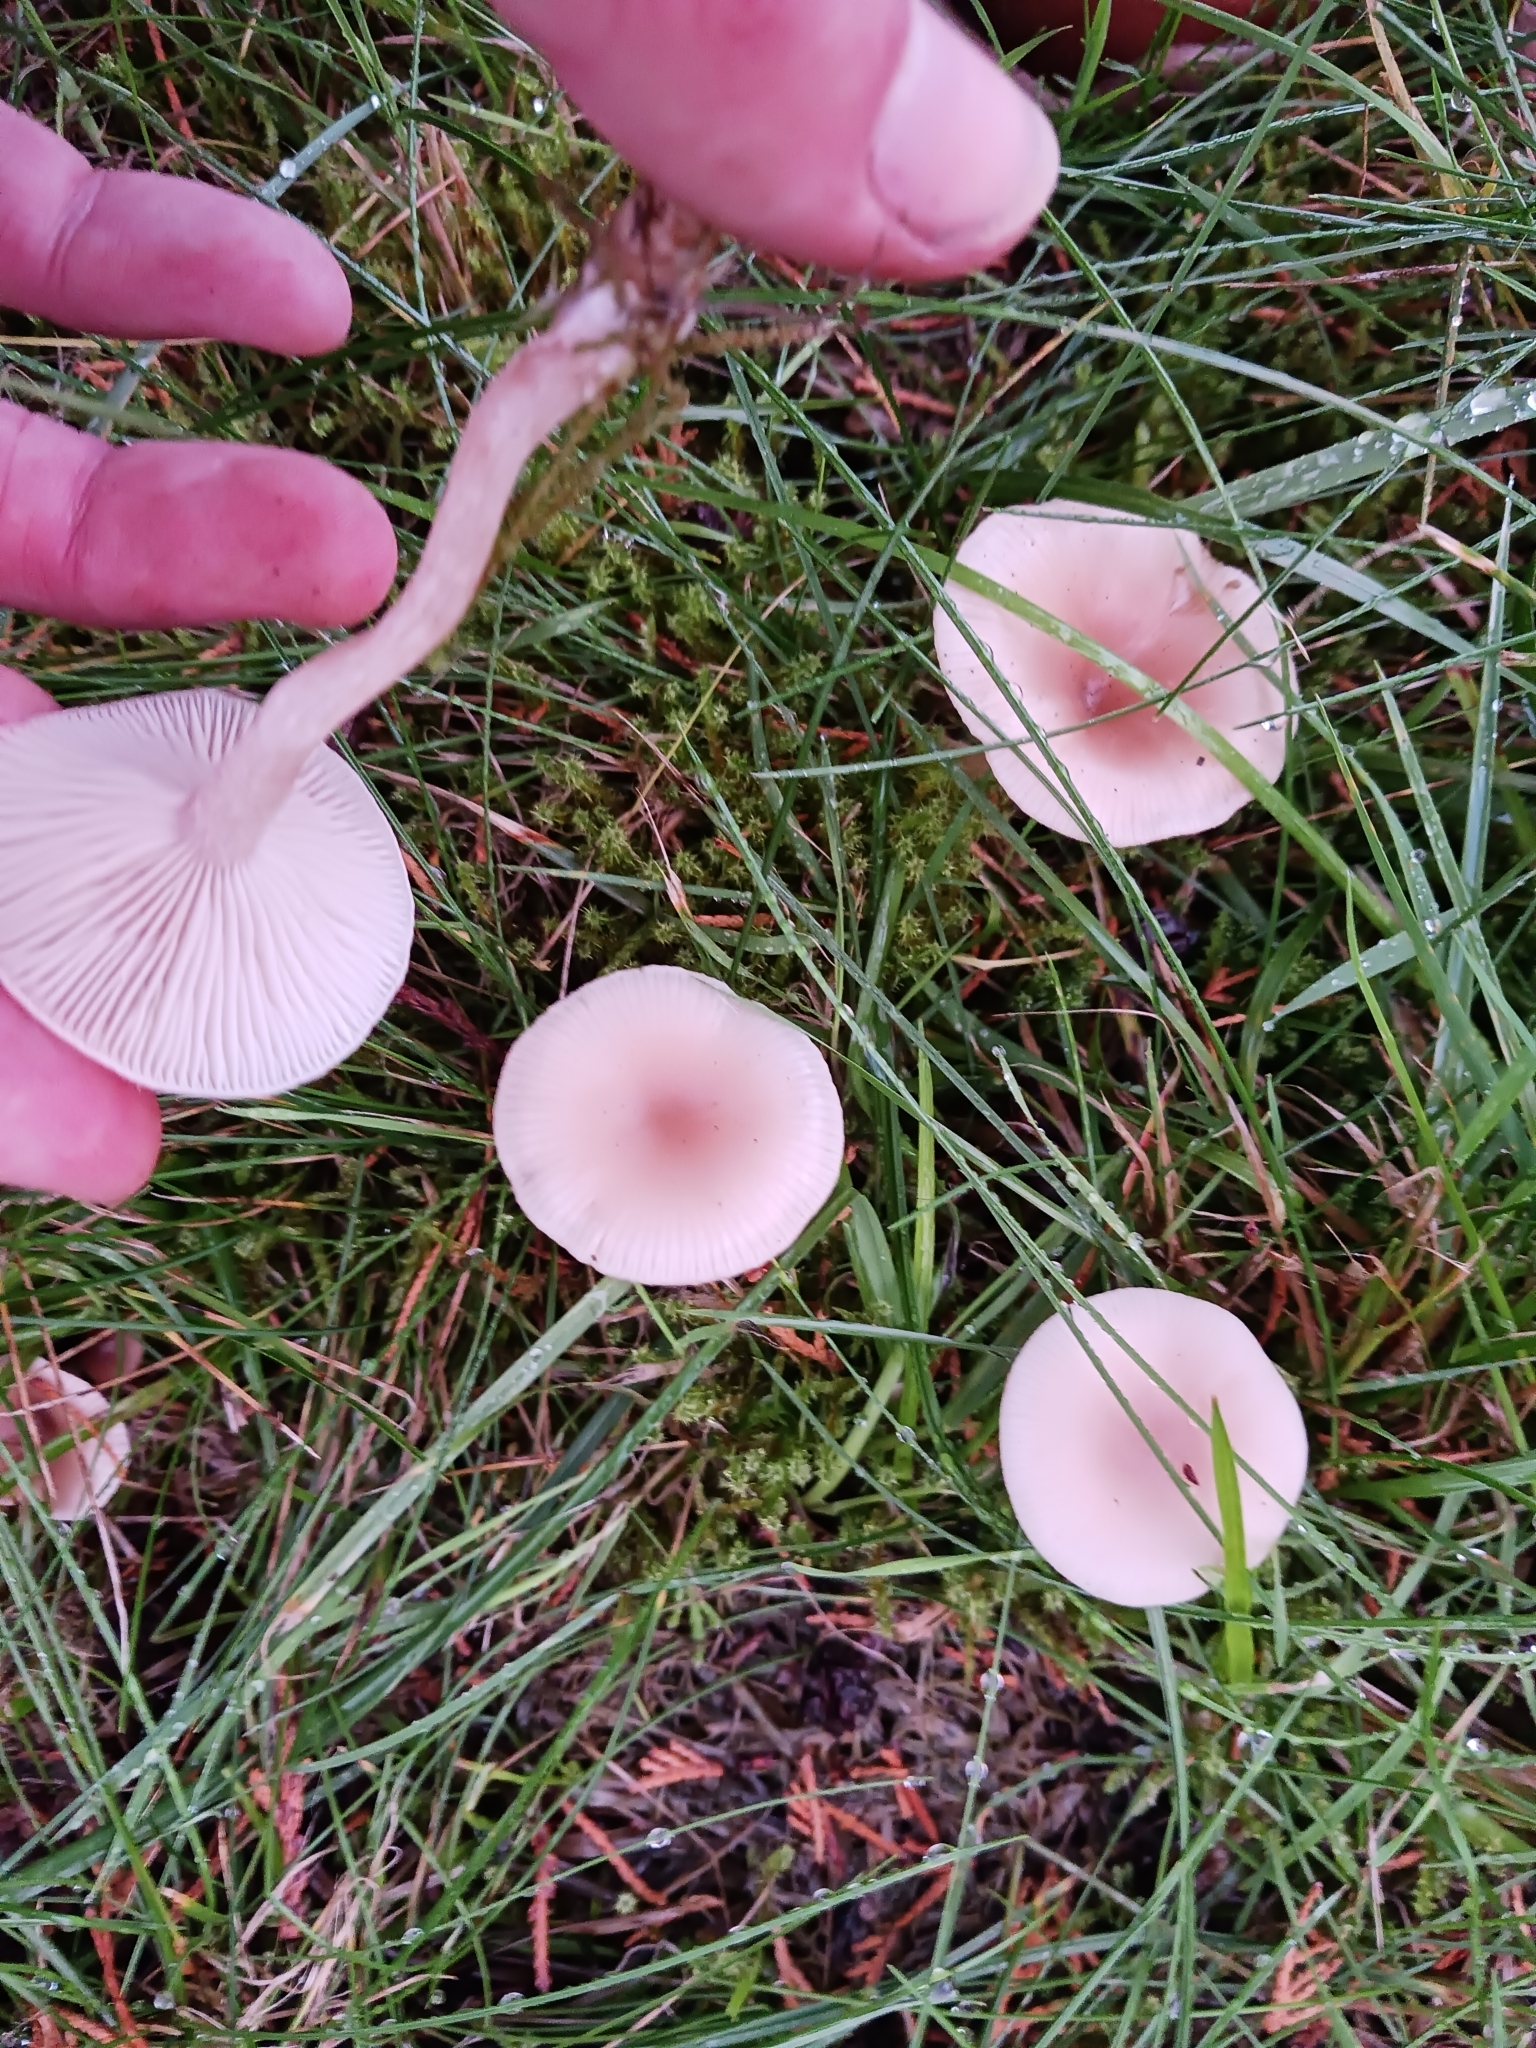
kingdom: Fungi
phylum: Basidiomycota
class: Agaricomycetes
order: Agaricales
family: Tricholomataceae
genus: Clitocybe
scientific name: Clitocybe fragrans
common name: Fragrant funnel
